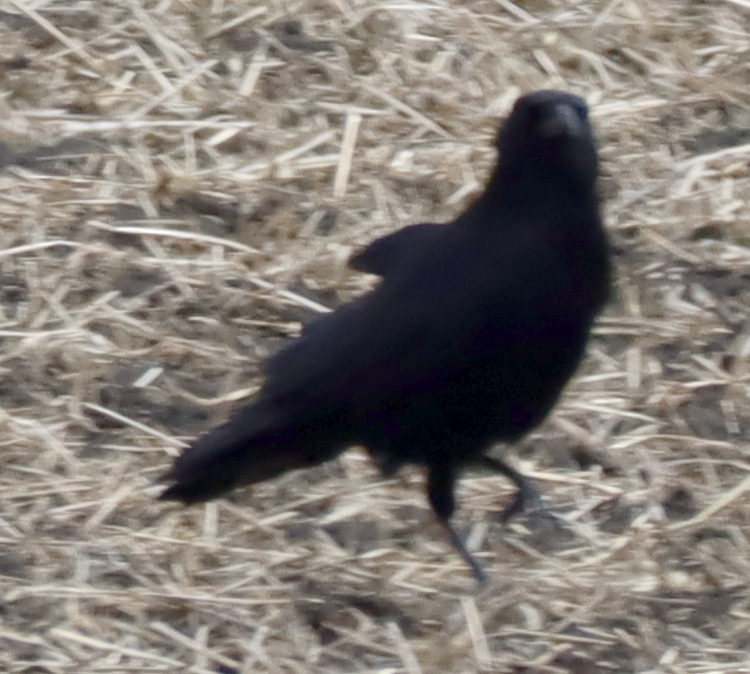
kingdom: Animalia
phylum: Chordata
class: Aves
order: Passeriformes
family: Corvidae
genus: Corvus
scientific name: Corvus corax
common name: Common raven
